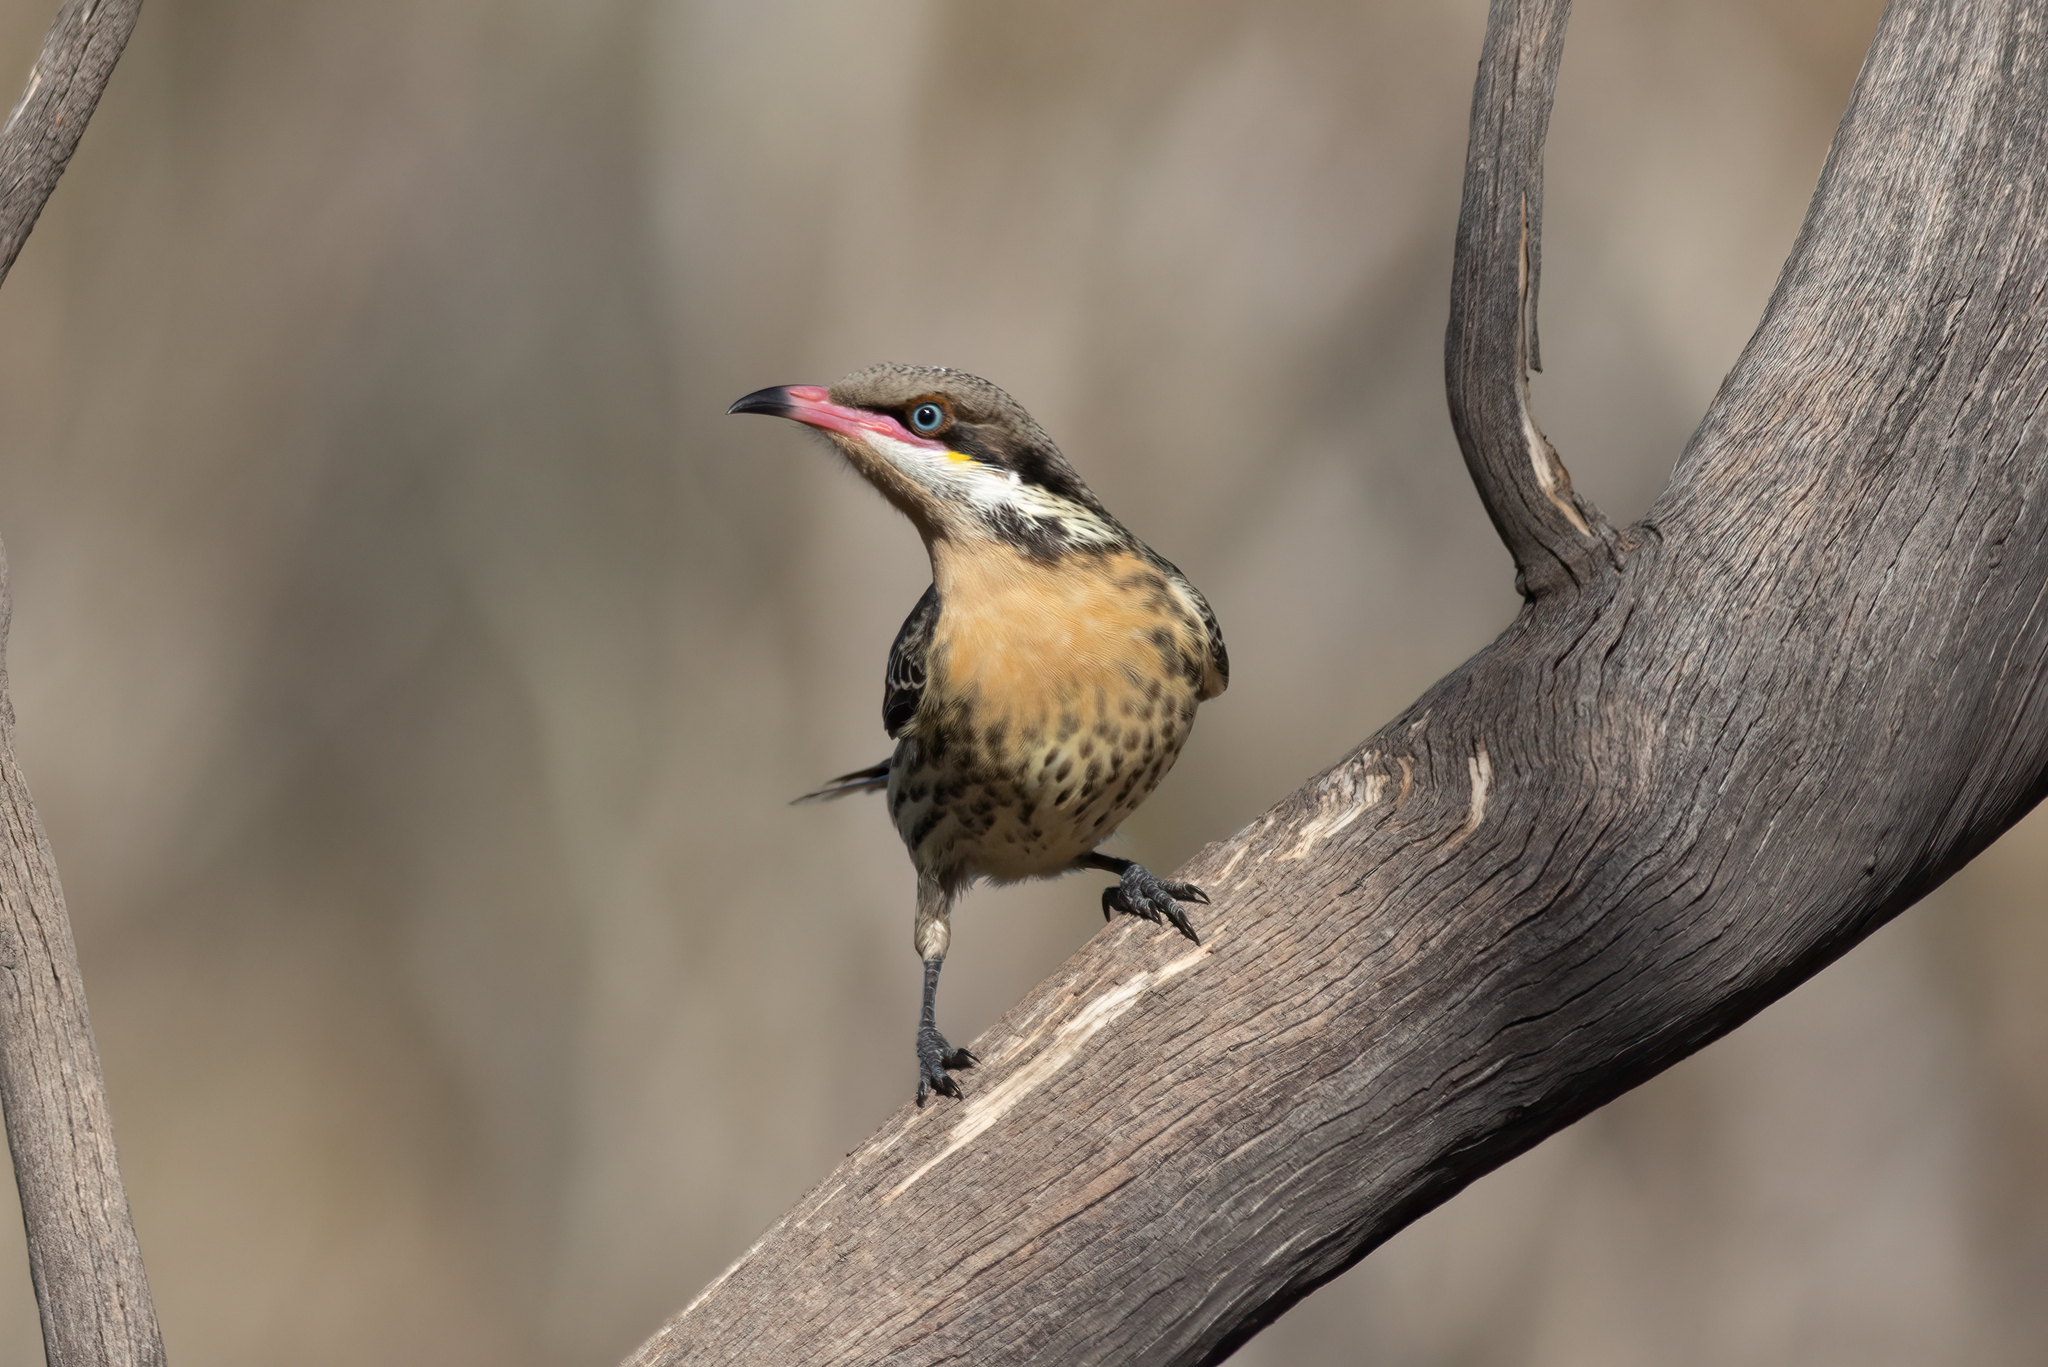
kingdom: Animalia
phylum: Chordata
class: Aves
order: Passeriformes
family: Meliphagidae
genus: Acanthagenys
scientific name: Acanthagenys rufogularis
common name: Spiny-cheeked honeyeater
